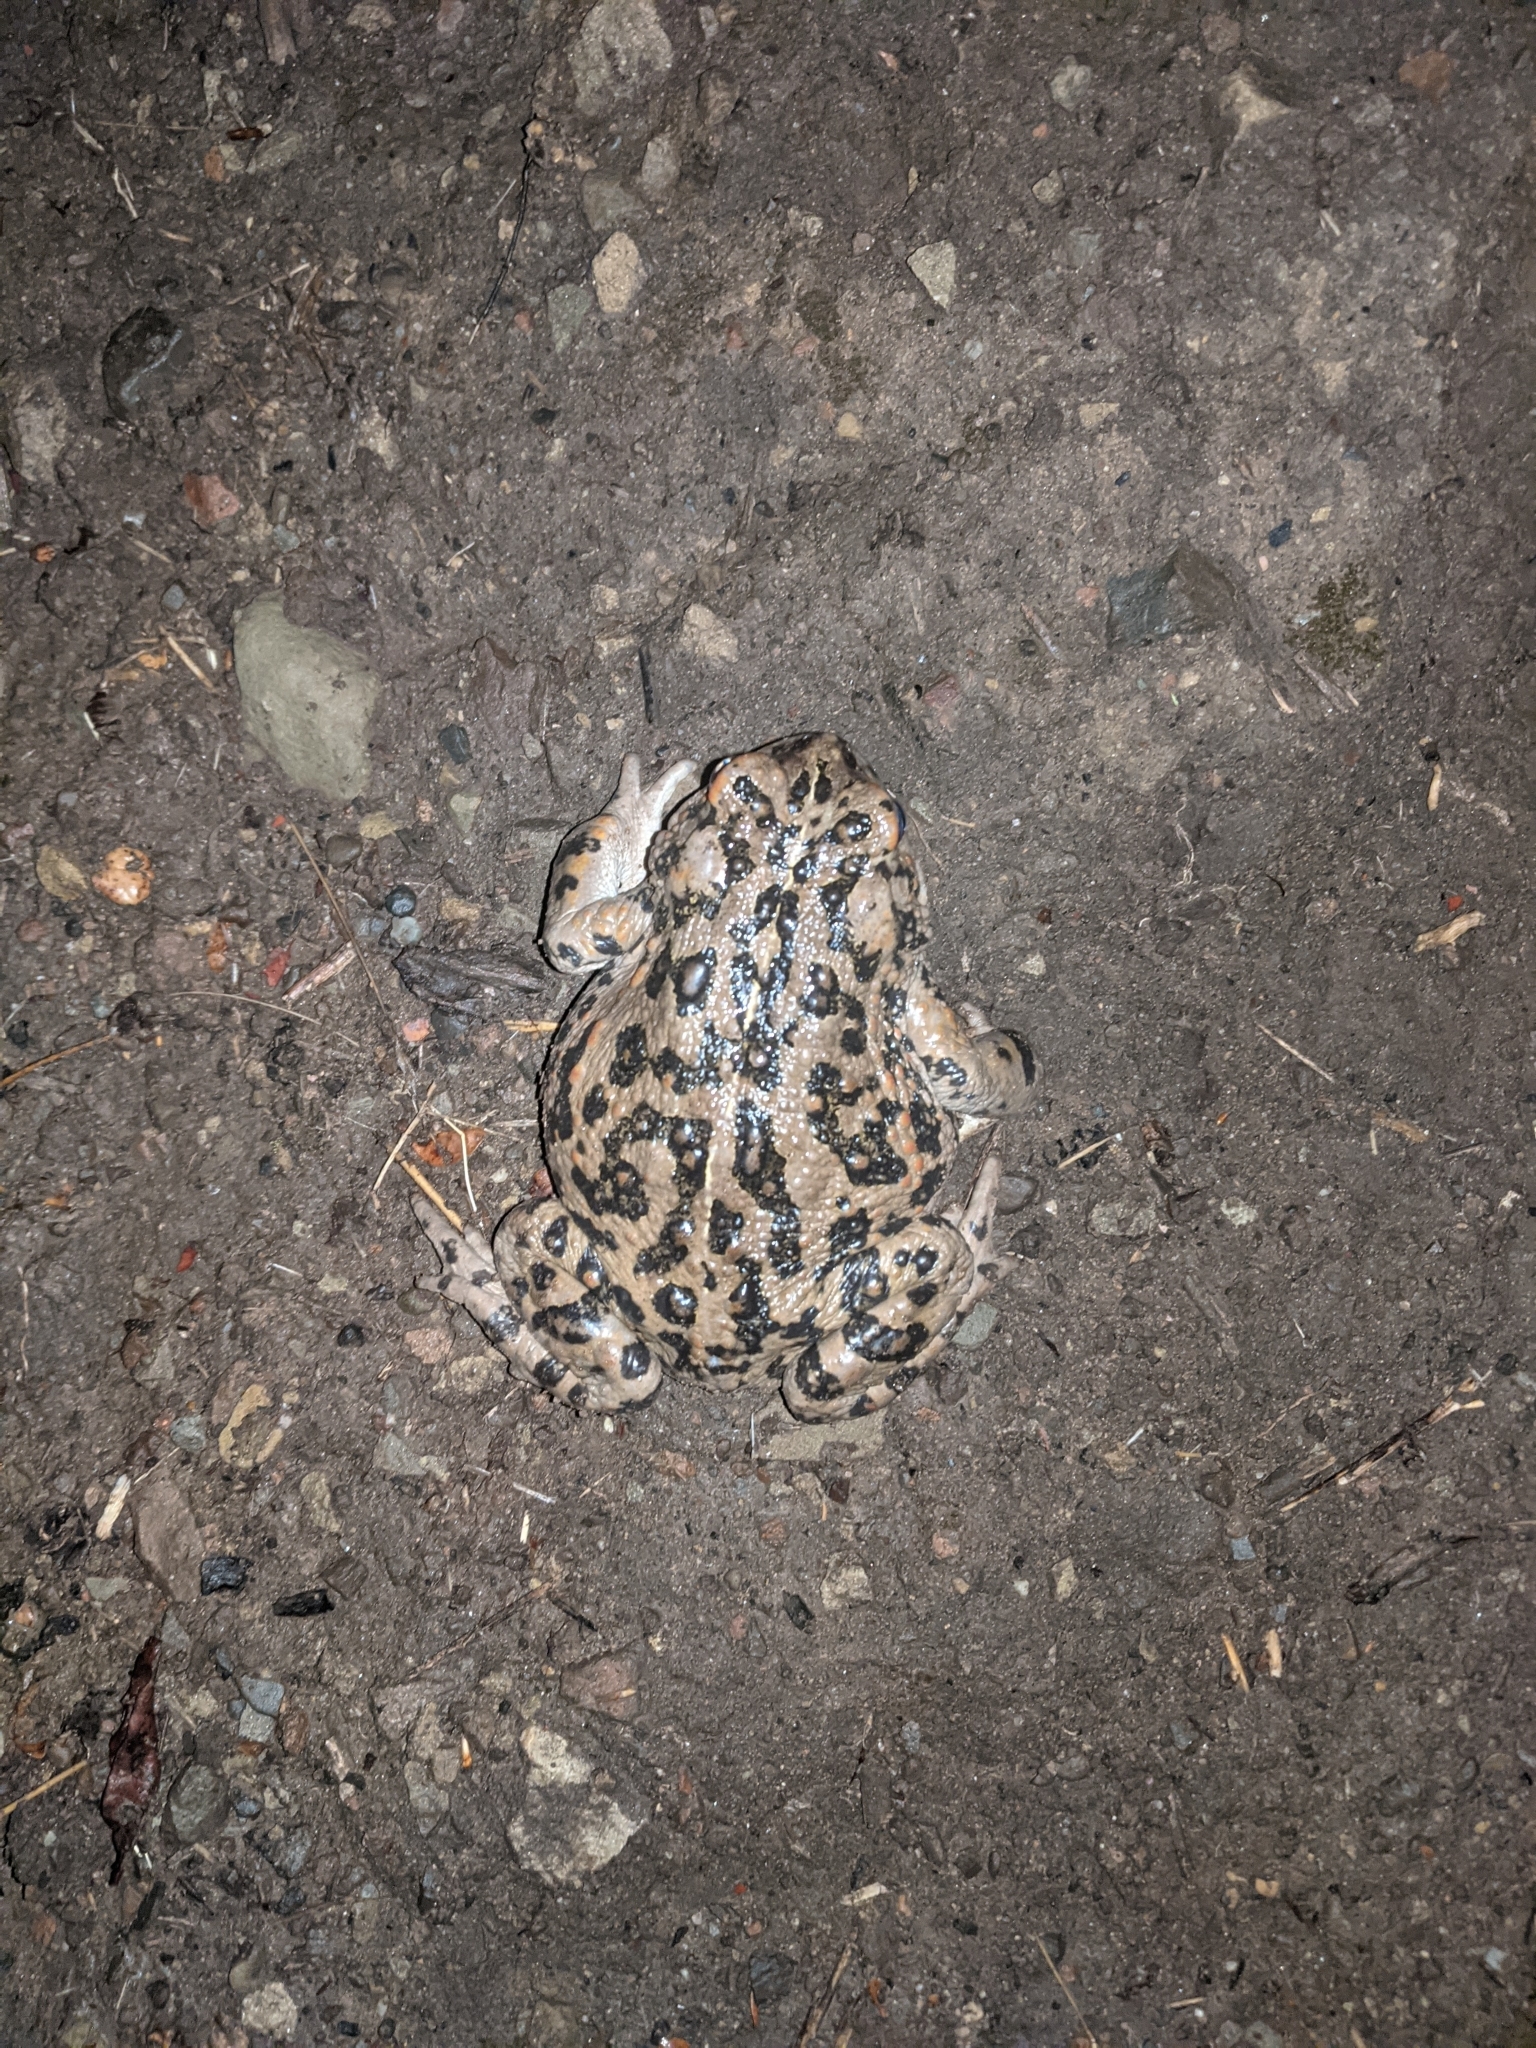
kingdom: Animalia
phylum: Chordata
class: Amphibia
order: Anura
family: Bufonidae
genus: Anaxyrus
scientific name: Anaxyrus boreas
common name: Western toad
